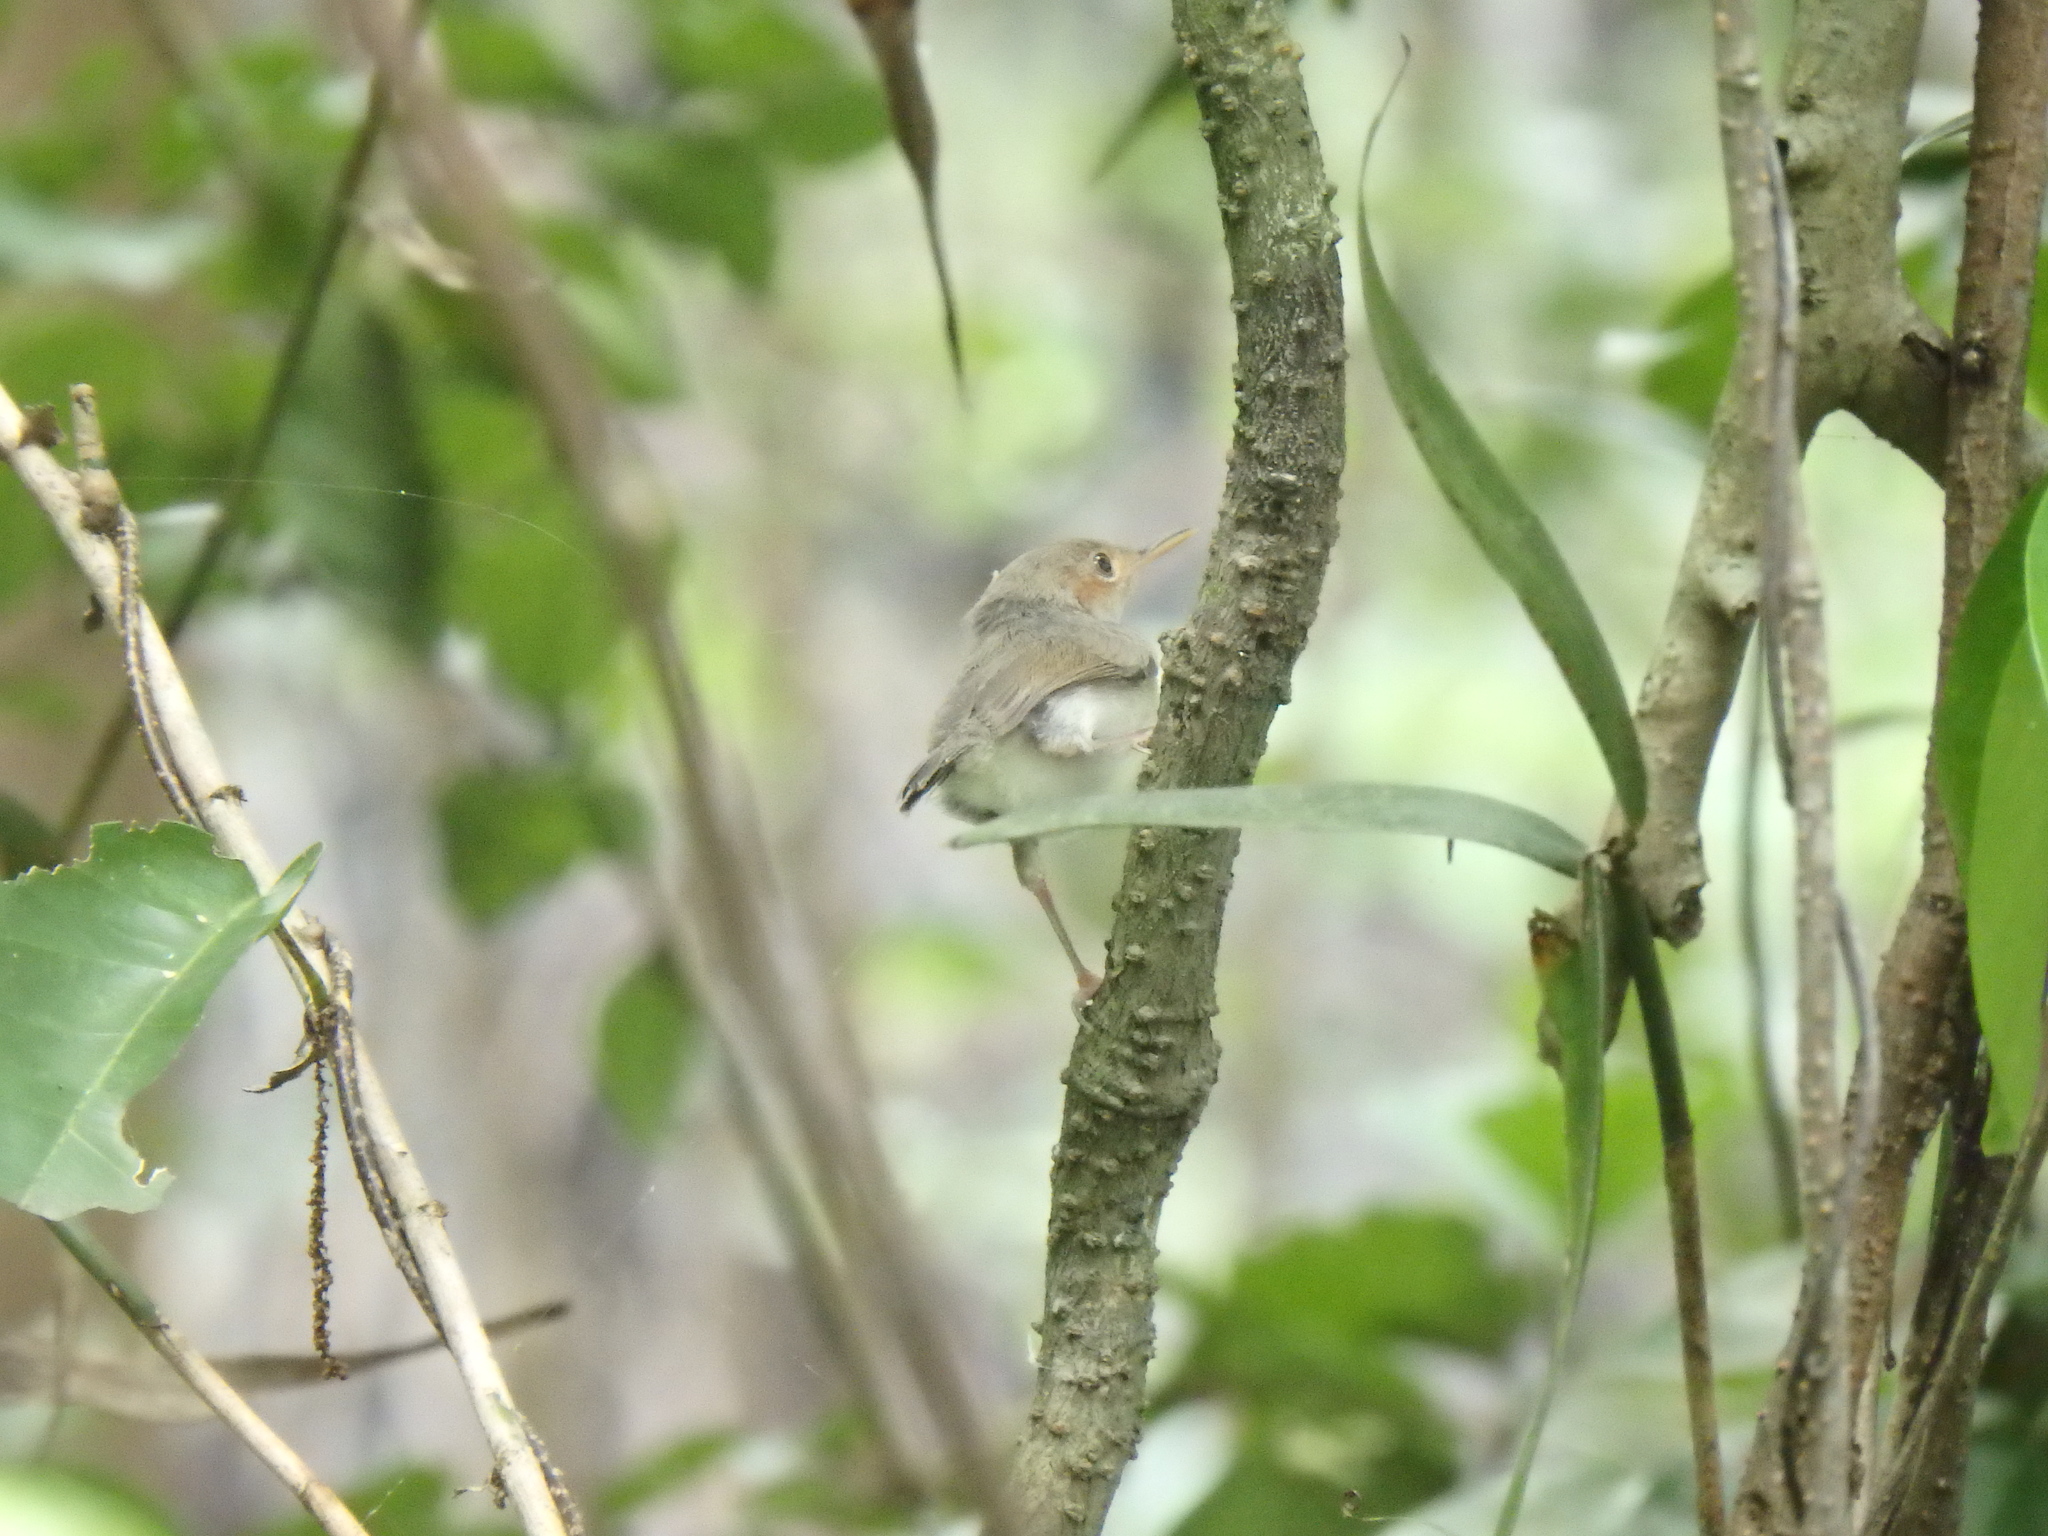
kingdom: Animalia
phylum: Chordata
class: Aves
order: Passeriformes
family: Cisticolidae
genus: Orthotomus
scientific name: Orthotomus ruficeps
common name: Ashy tailorbird
